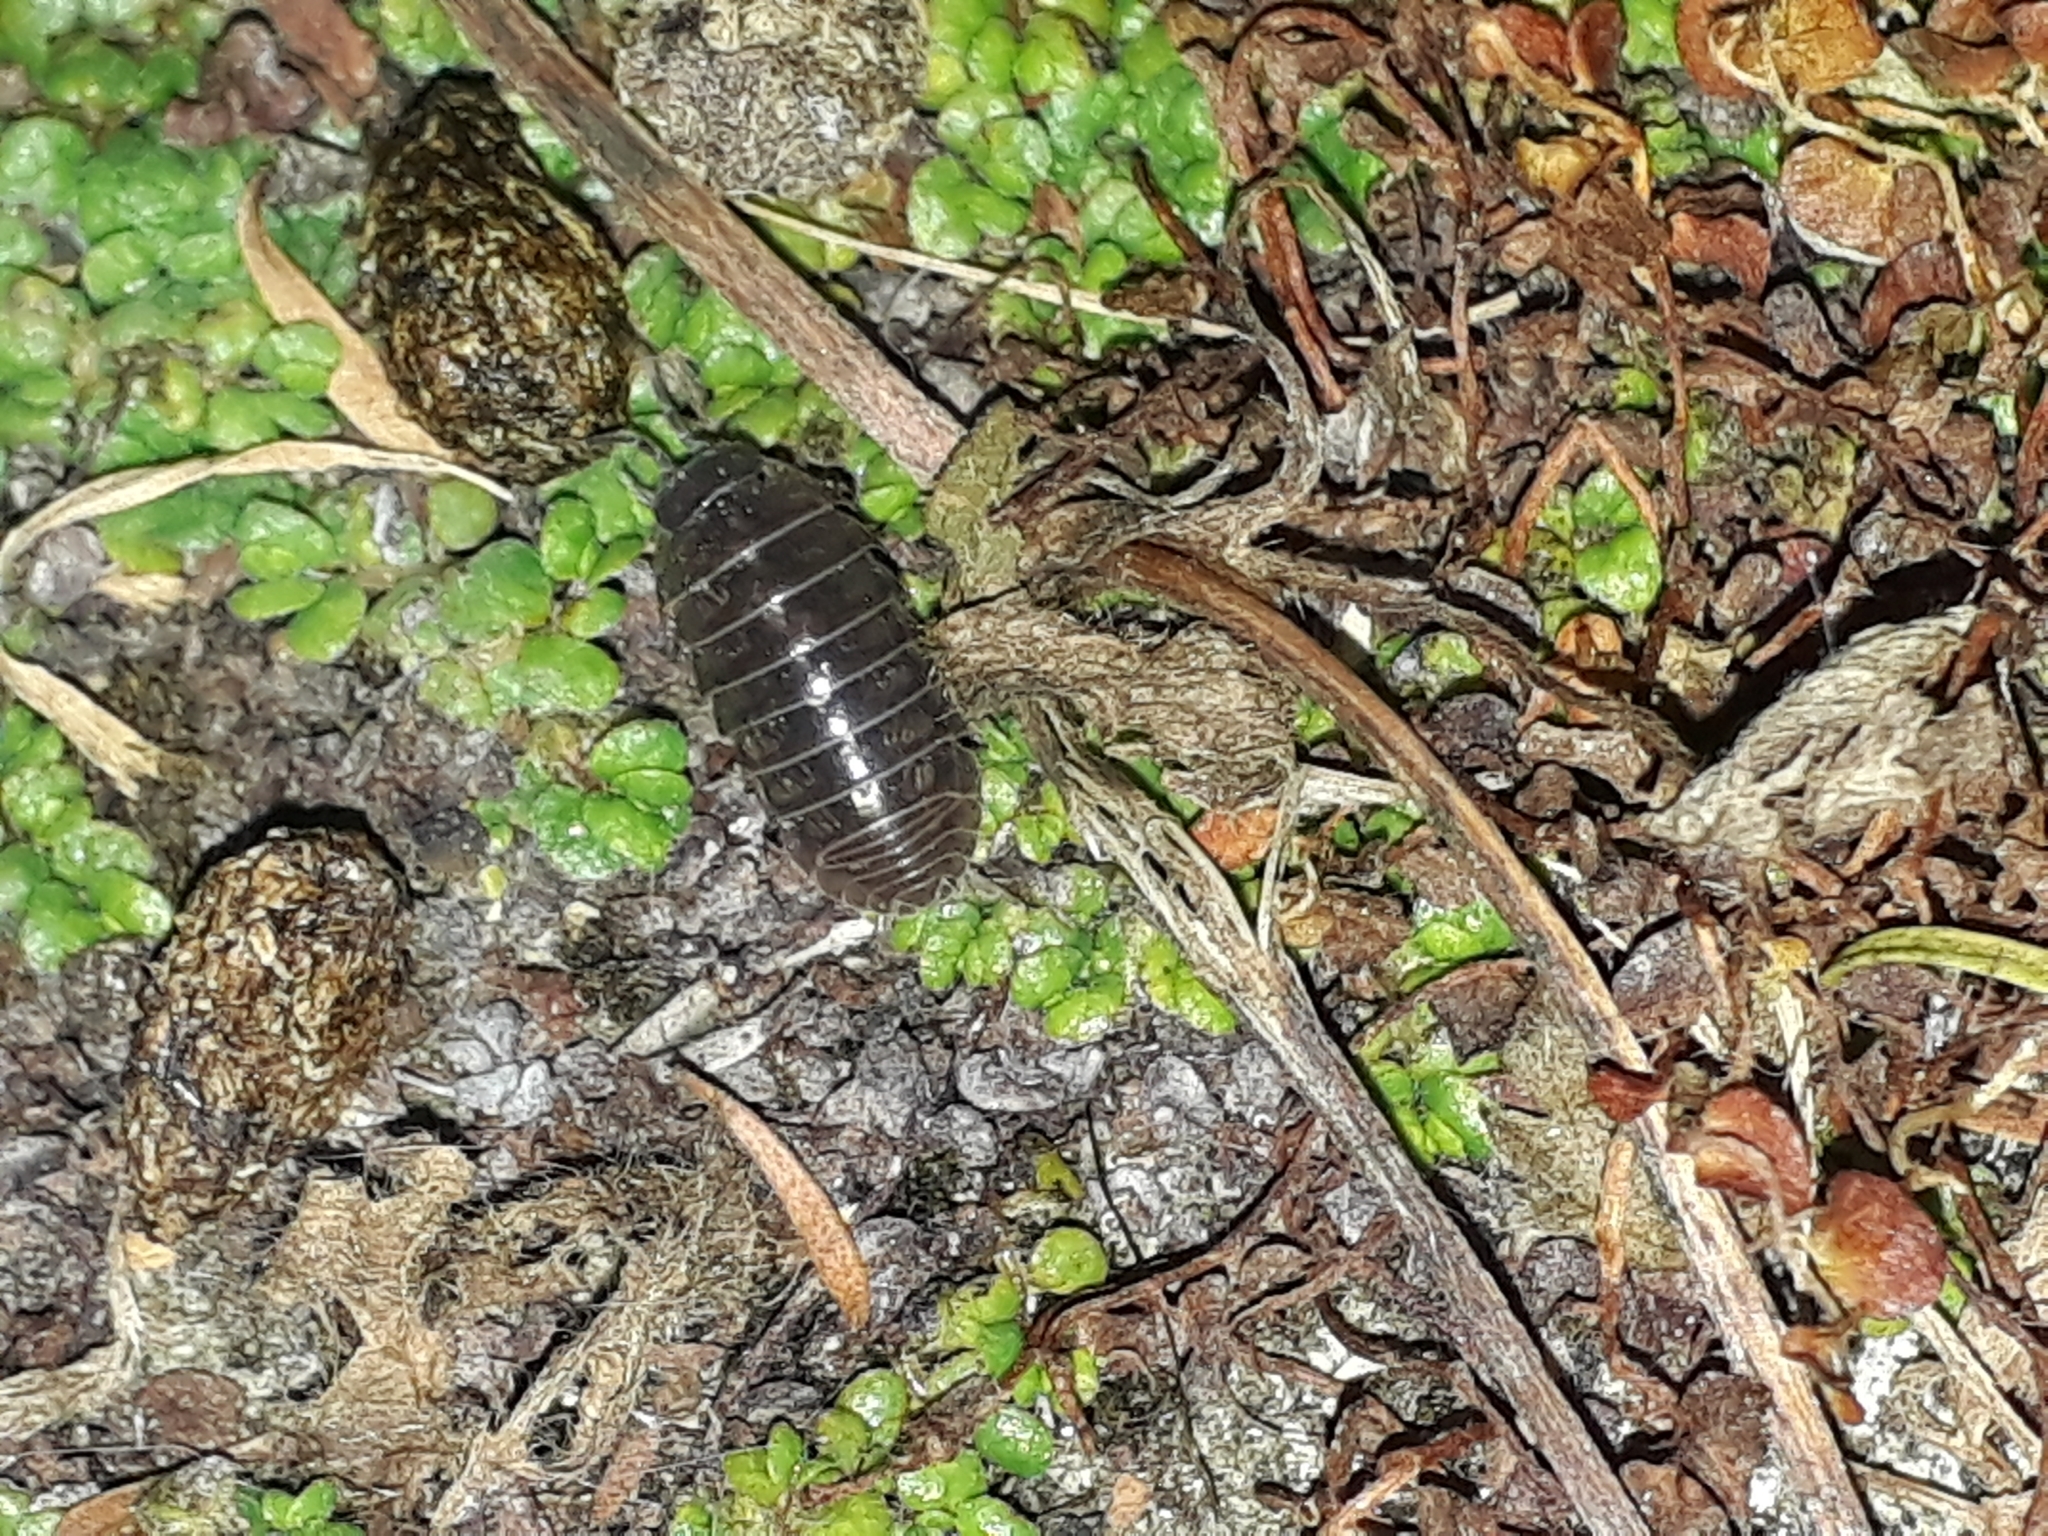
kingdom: Animalia
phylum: Arthropoda
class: Malacostraca
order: Isopoda
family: Armadillidiidae
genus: Armadillidium
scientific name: Armadillidium vulgare
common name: Common pill woodlouse
